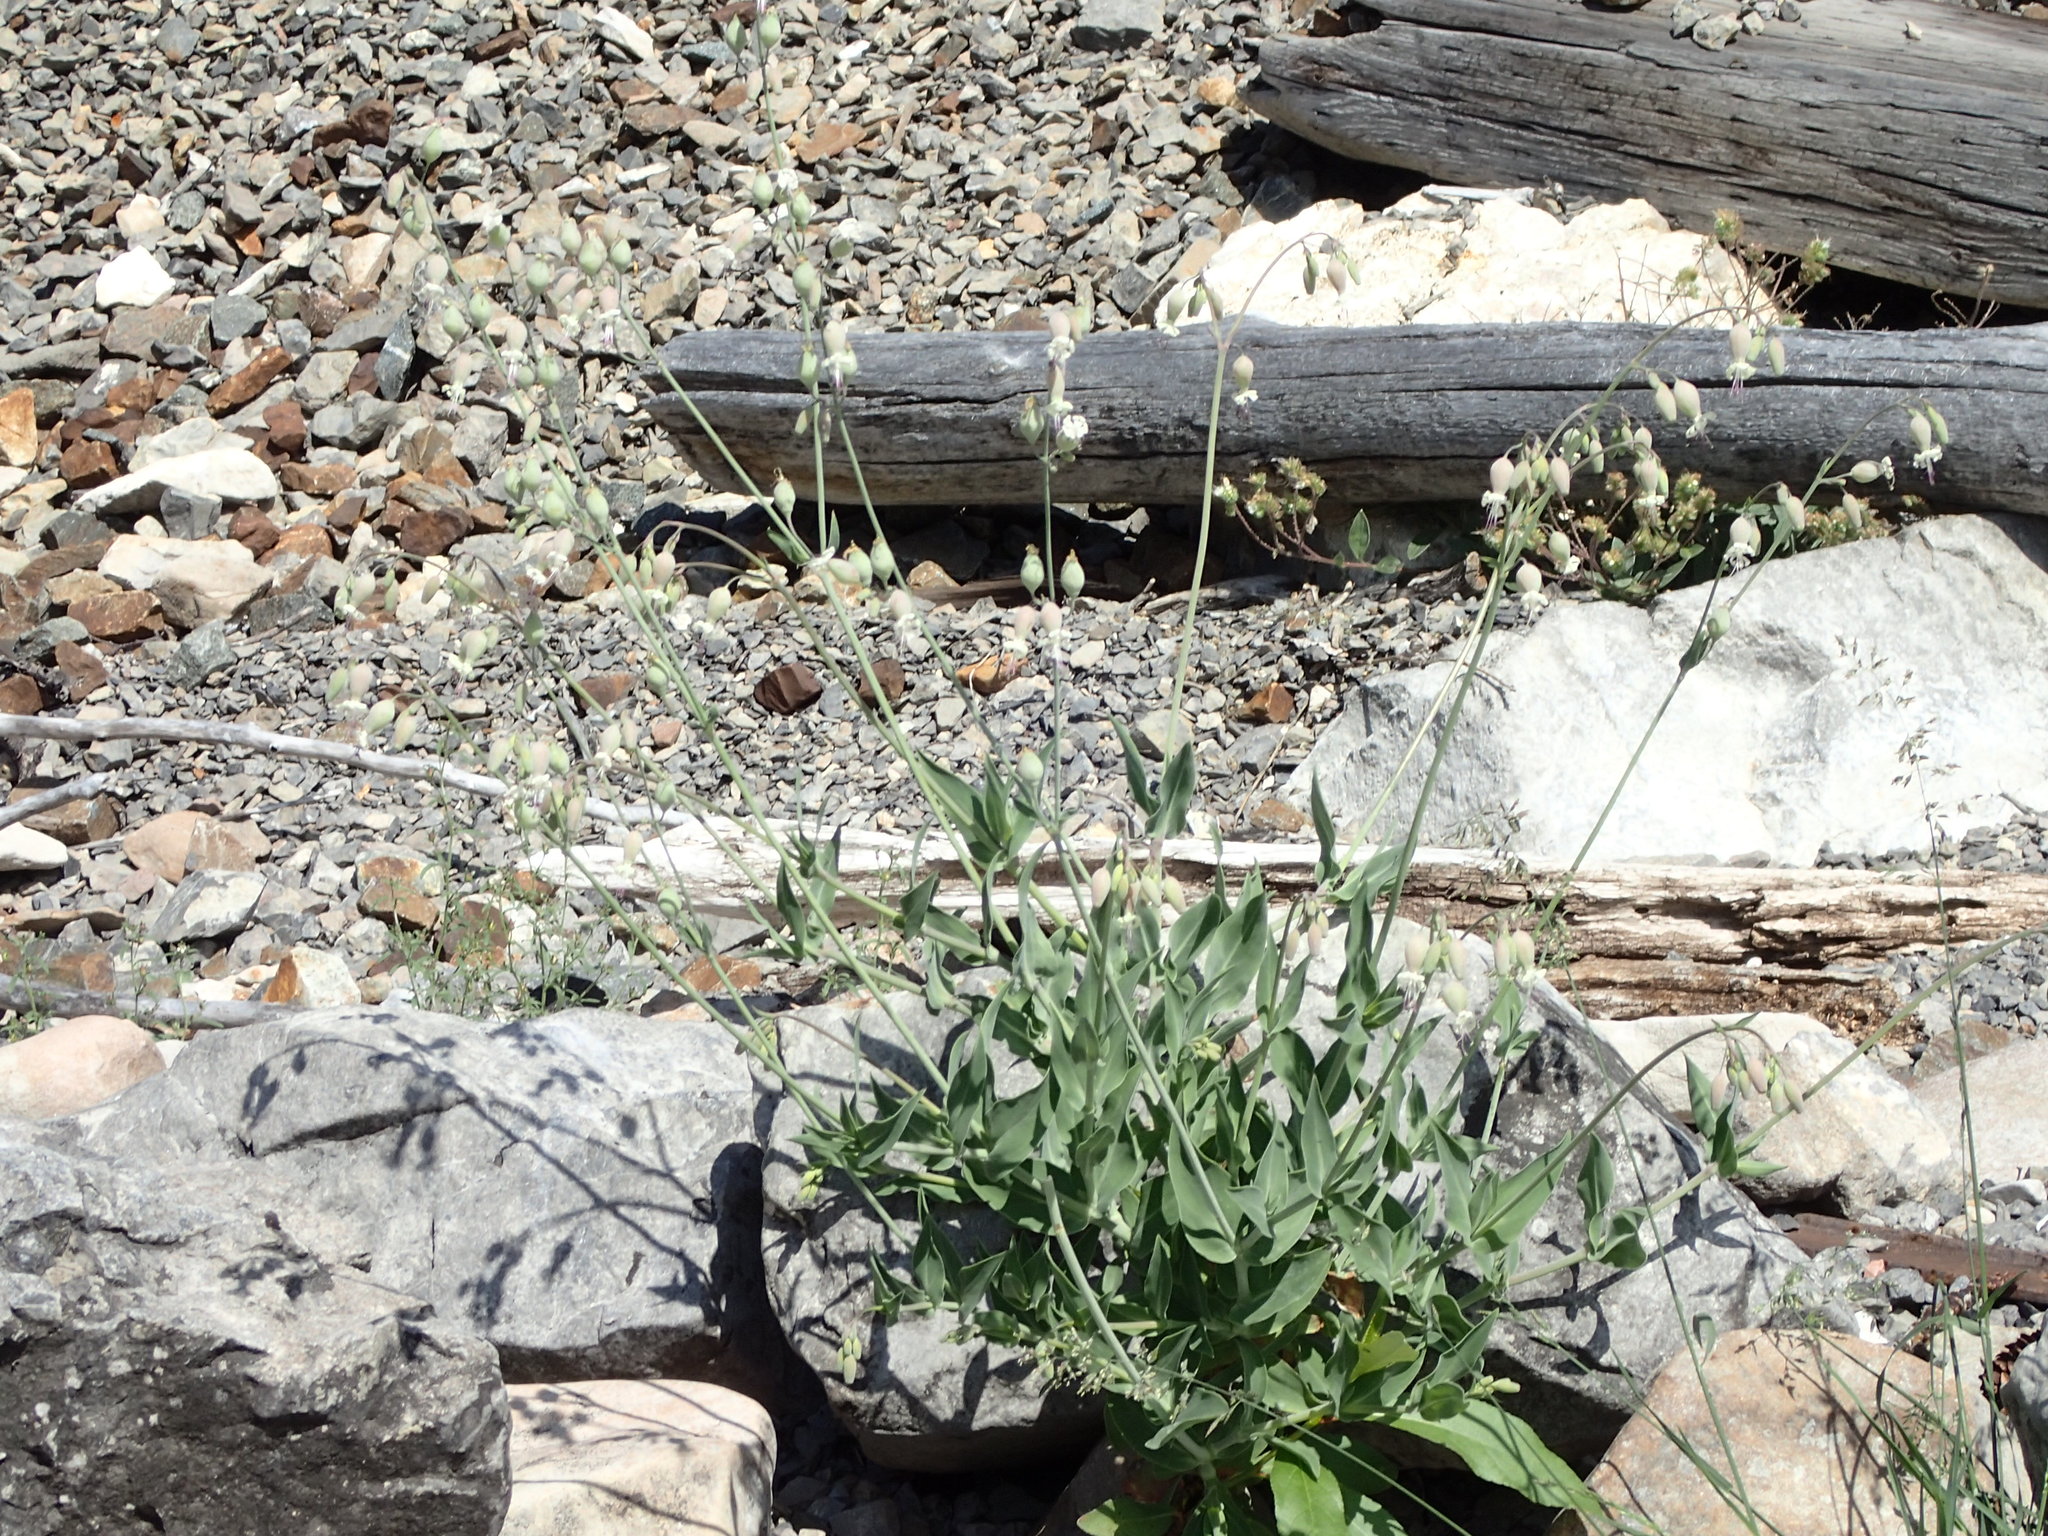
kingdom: Plantae
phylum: Tracheophyta
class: Magnoliopsida
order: Caryophyllales
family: Caryophyllaceae
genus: Silene
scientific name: Silene csereii
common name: Balkan catchfly
